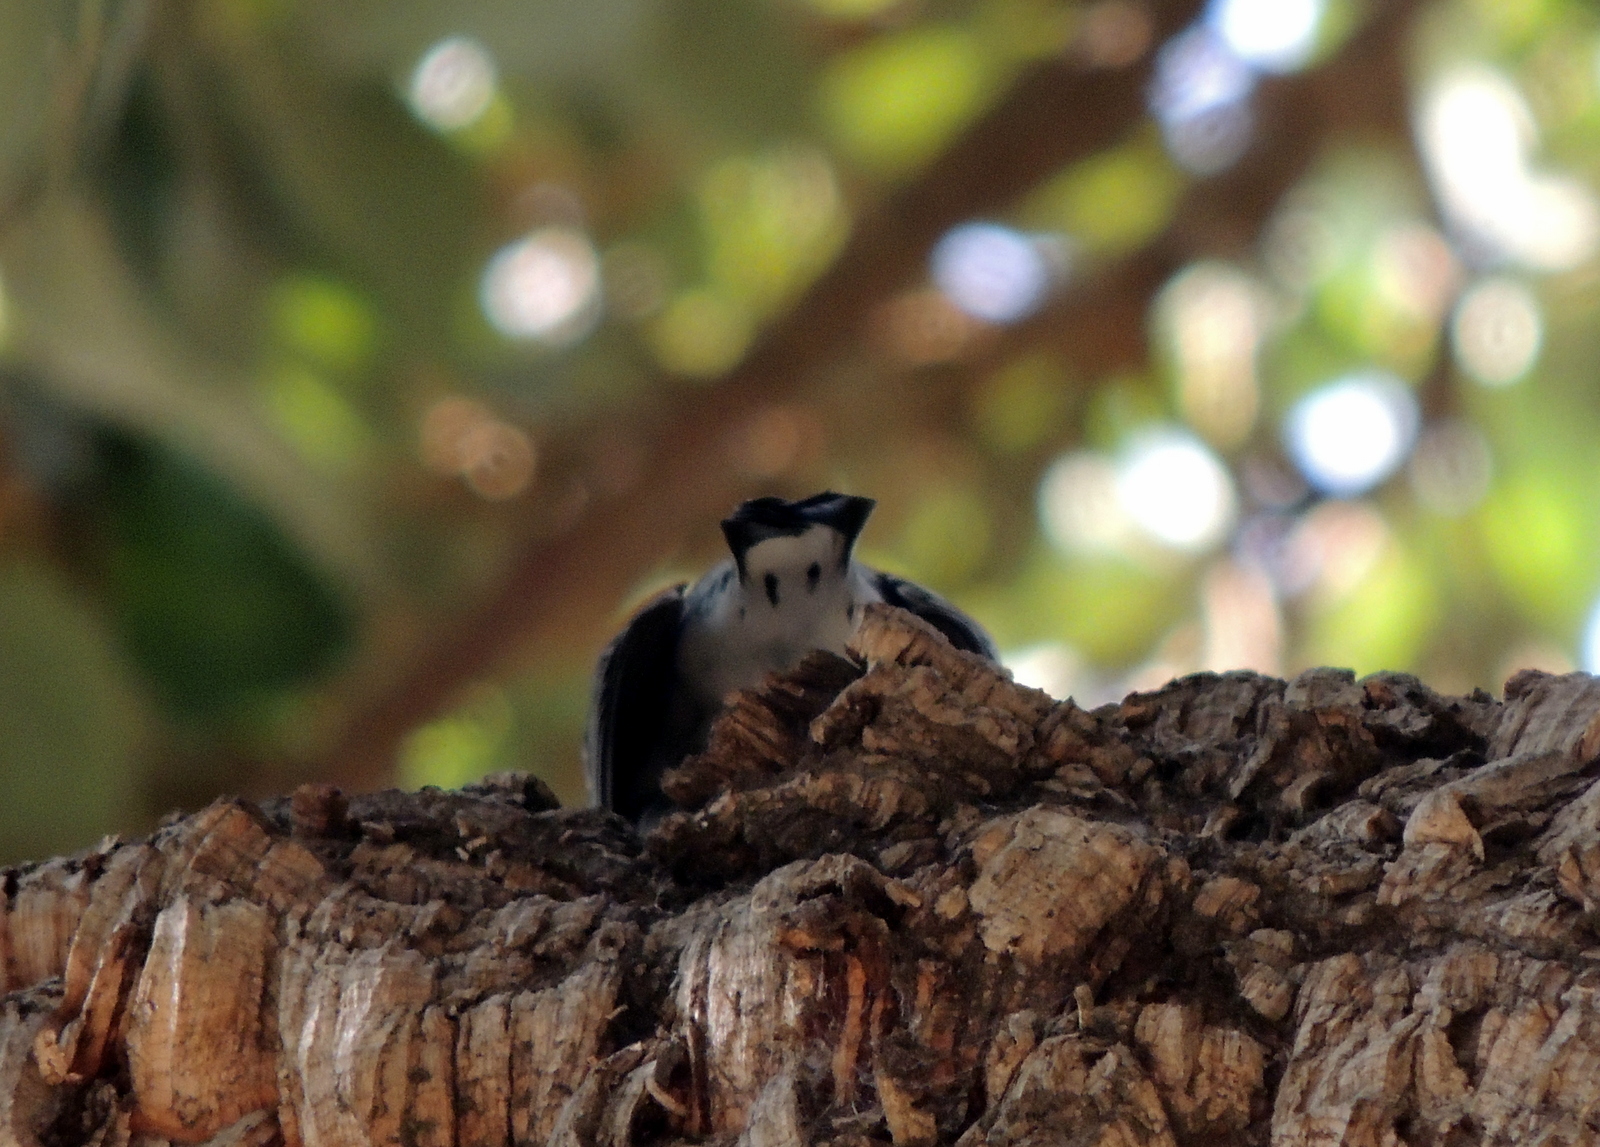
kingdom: Animalia
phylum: Chordata
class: Aves
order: Passeriformes
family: Parulidae
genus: Setophaga
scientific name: Setophaga coronata
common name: Myrtle warbler
